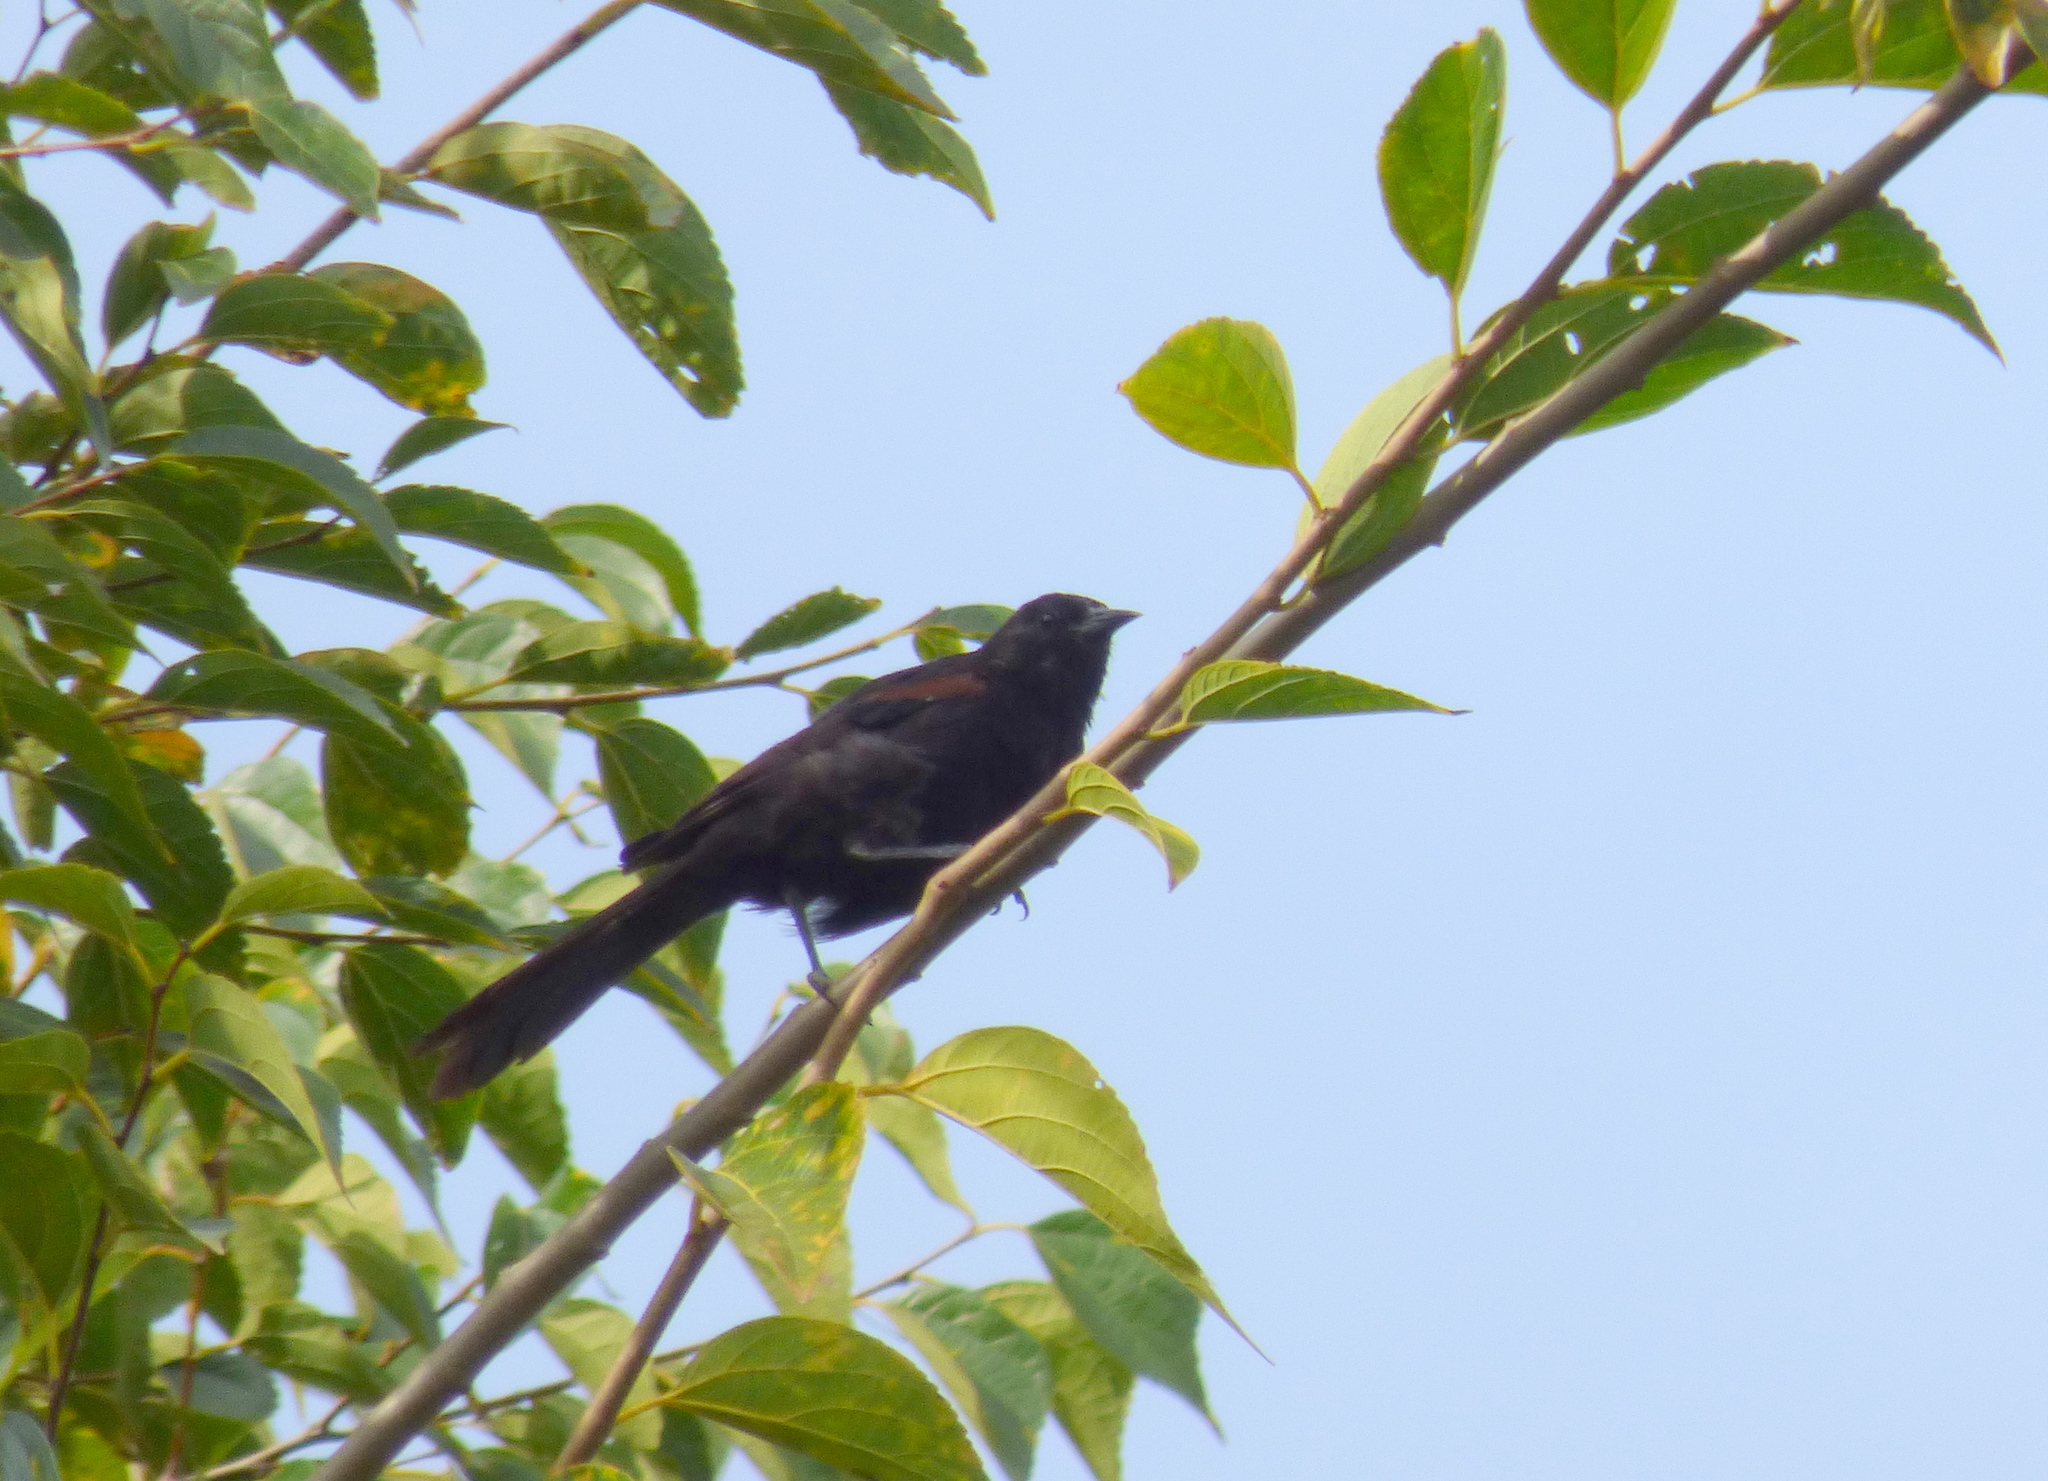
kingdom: Animalia
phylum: Chordata
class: Aves
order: Passeriformes
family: Icteridae
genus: Icterus
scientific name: Icterus cayanensis
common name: Epaulet oriole
